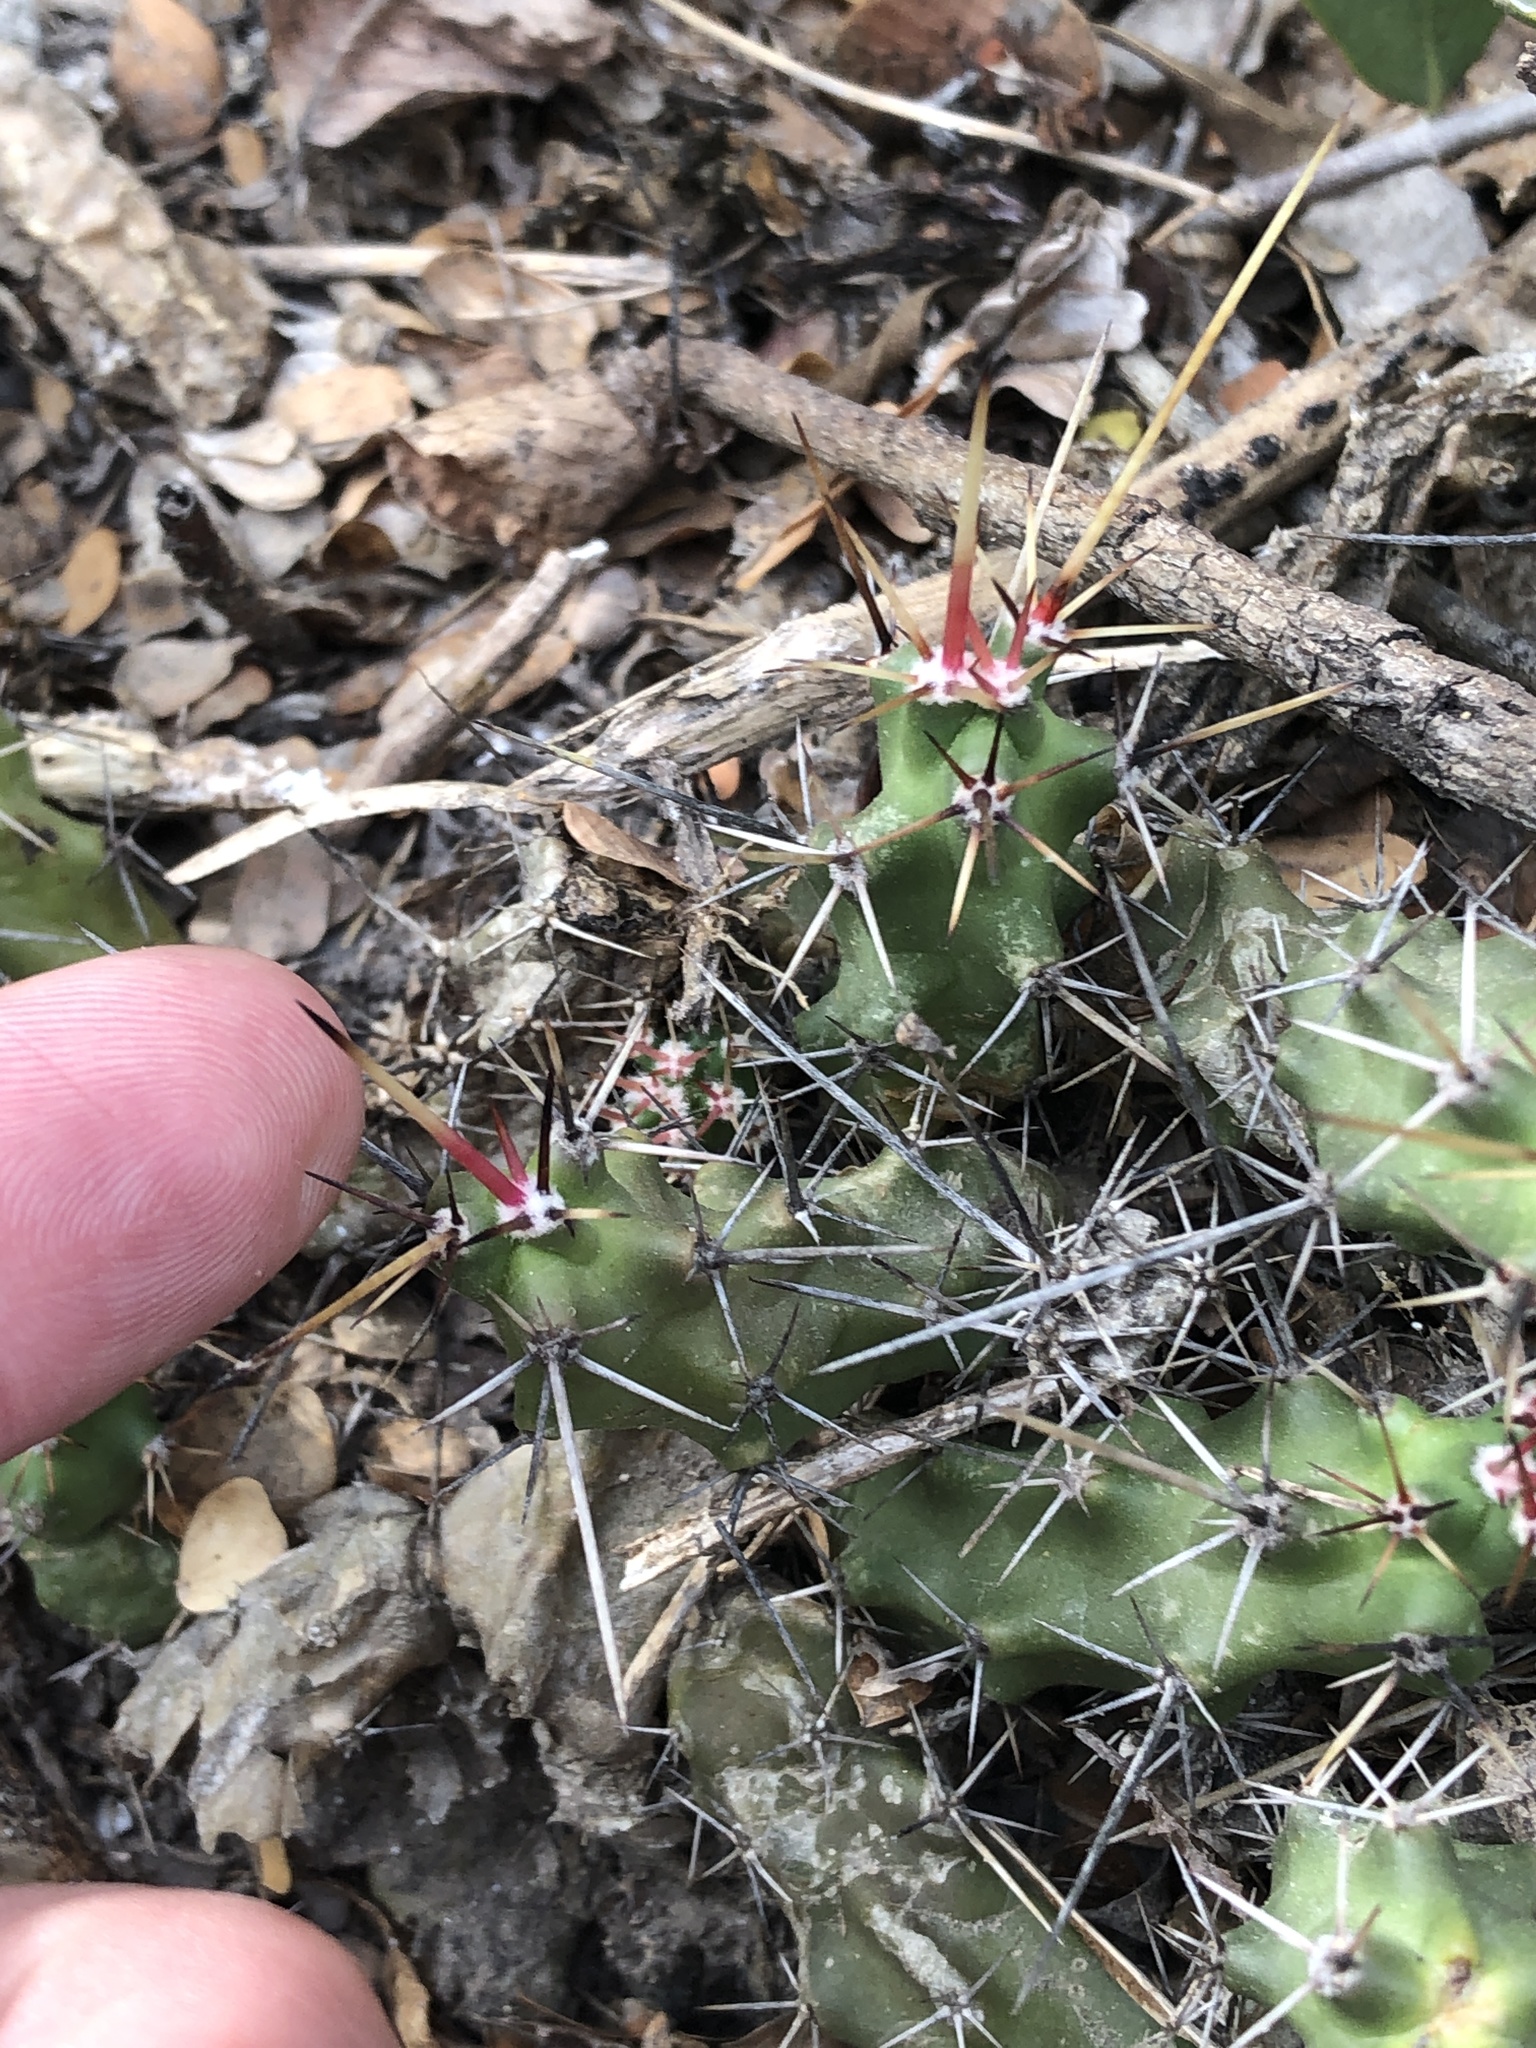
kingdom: Plantae
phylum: Tracheophyta
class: Magnoliopsida
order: Caryophyllales
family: Cactaceae
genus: Echinocereus
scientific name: Echinocereus pentalophus
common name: Ladyfinger cactus
